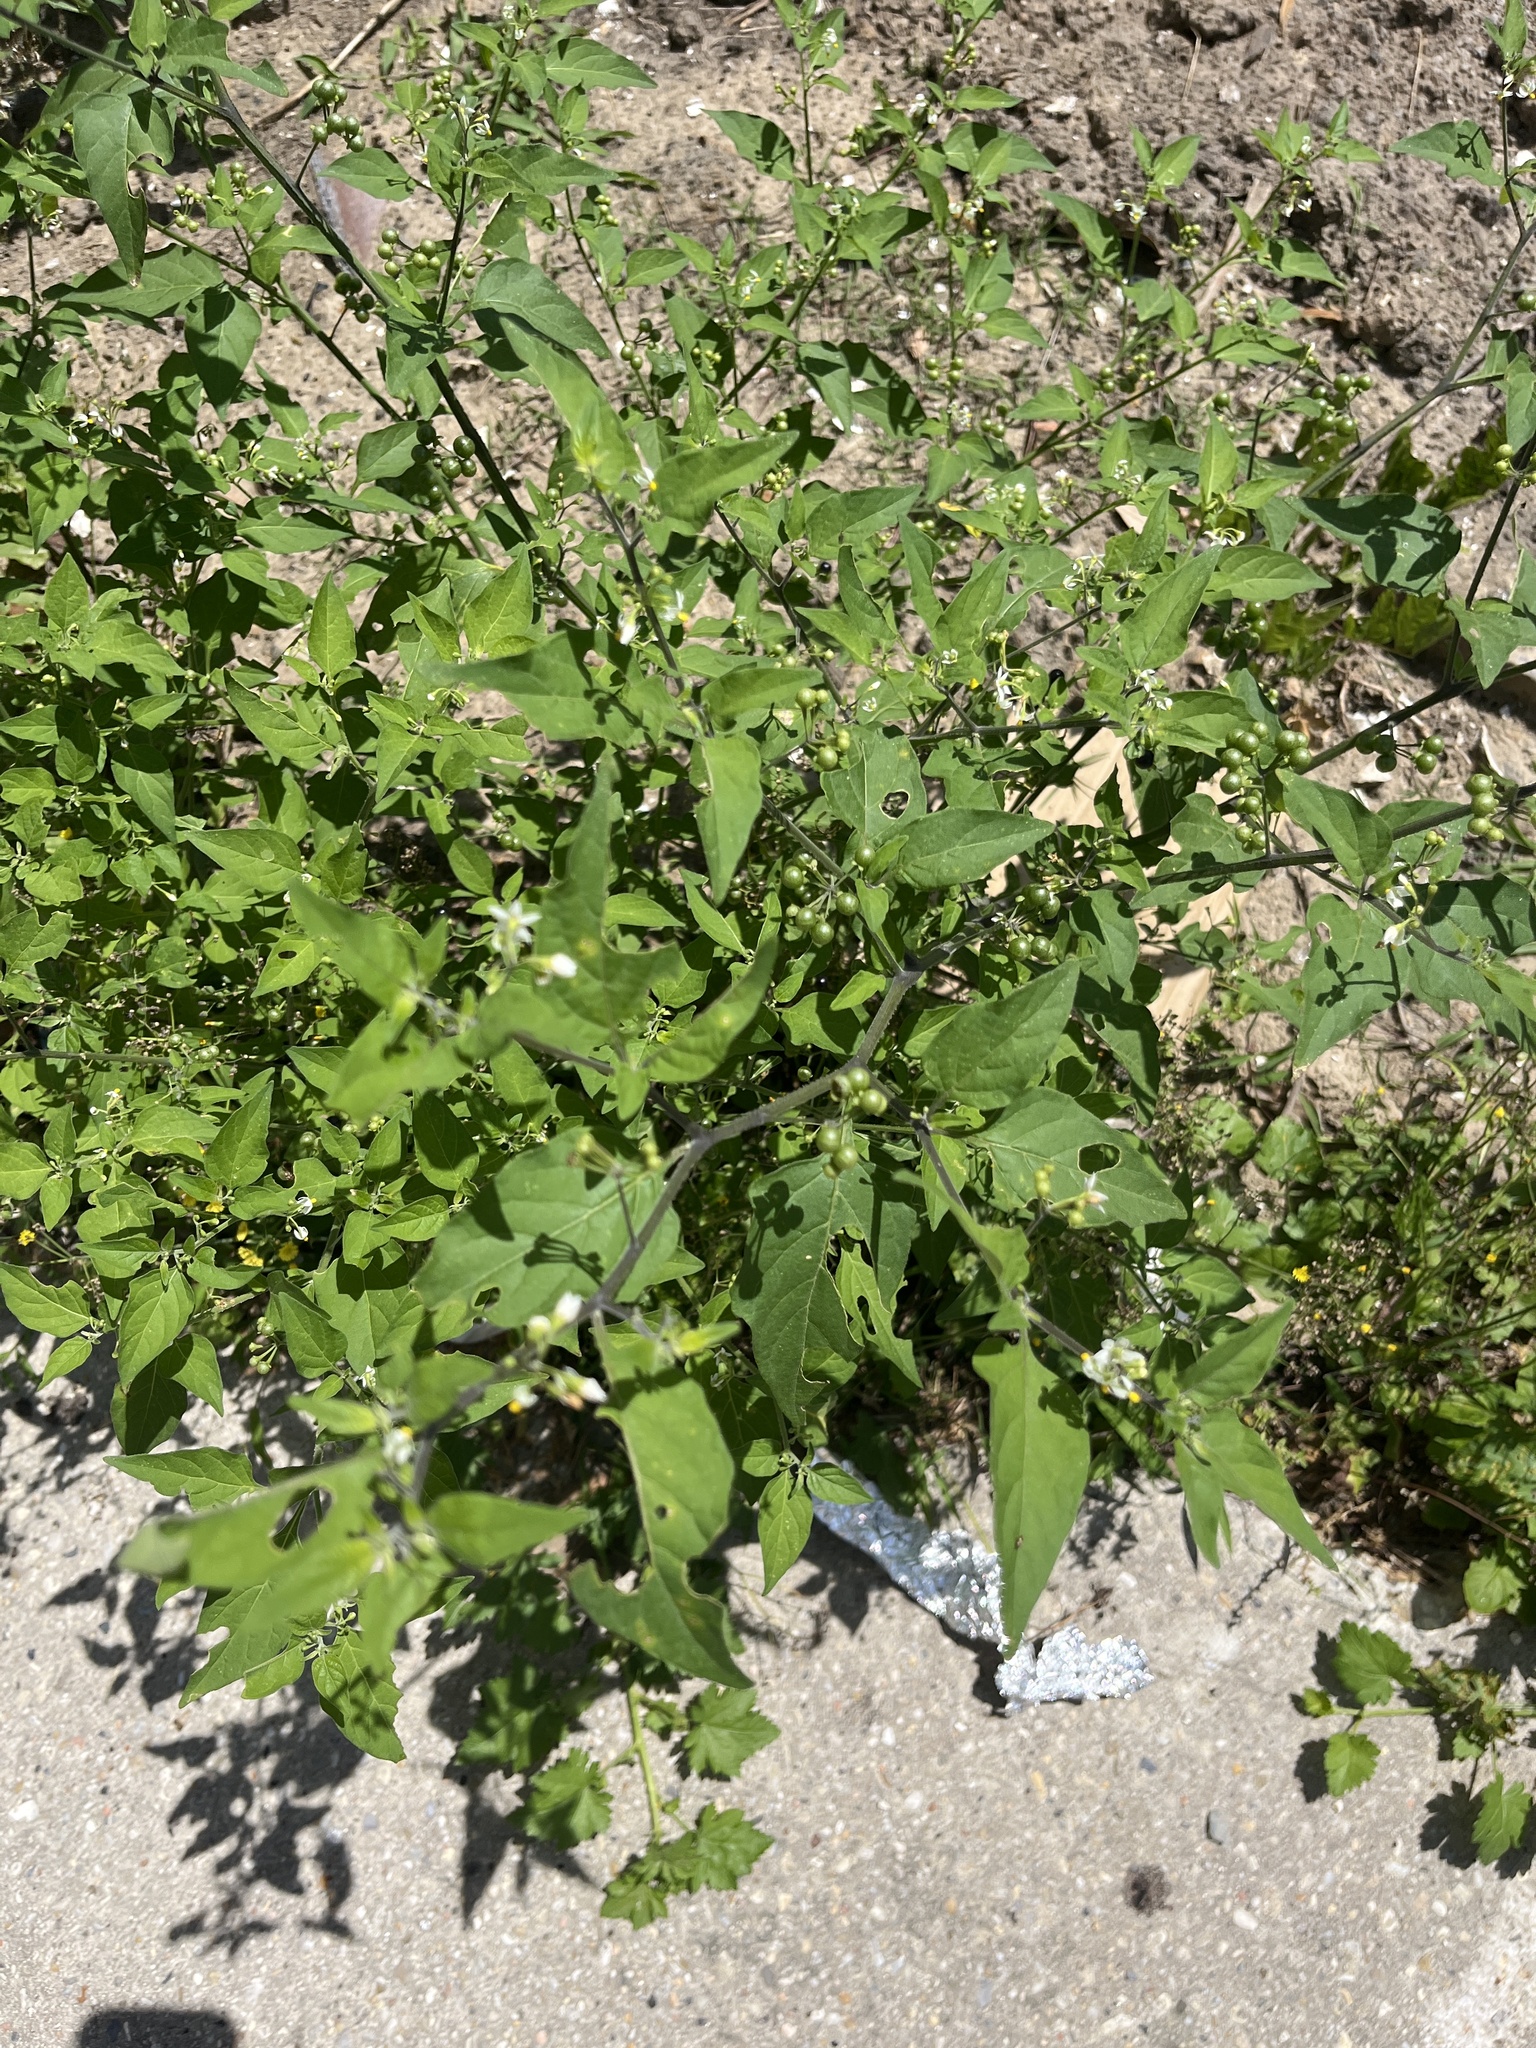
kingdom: Plantae
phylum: Tracheophyta
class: Magnoliopsida
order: Solanales
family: Solanaceae
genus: Solanum
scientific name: Solanum americanum
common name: American black nightshade
